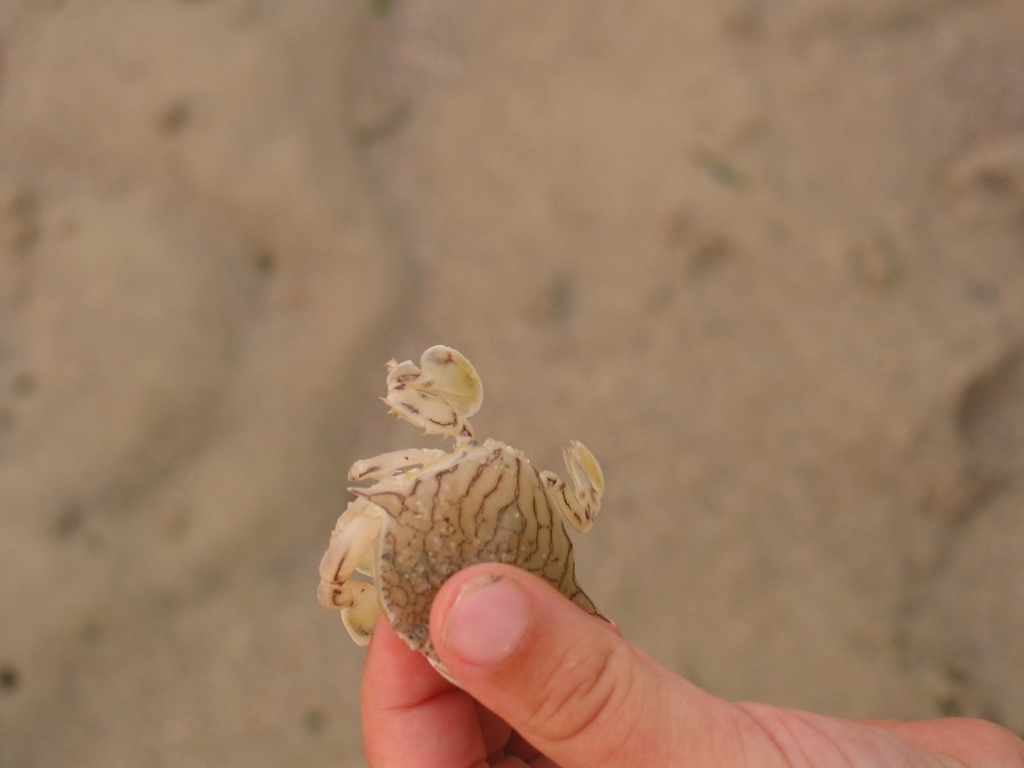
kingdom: Animalia
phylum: Arthropoda
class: Malacostraca
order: Decapoda
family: Matutidae
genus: Matuta
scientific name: Matuta planipes
